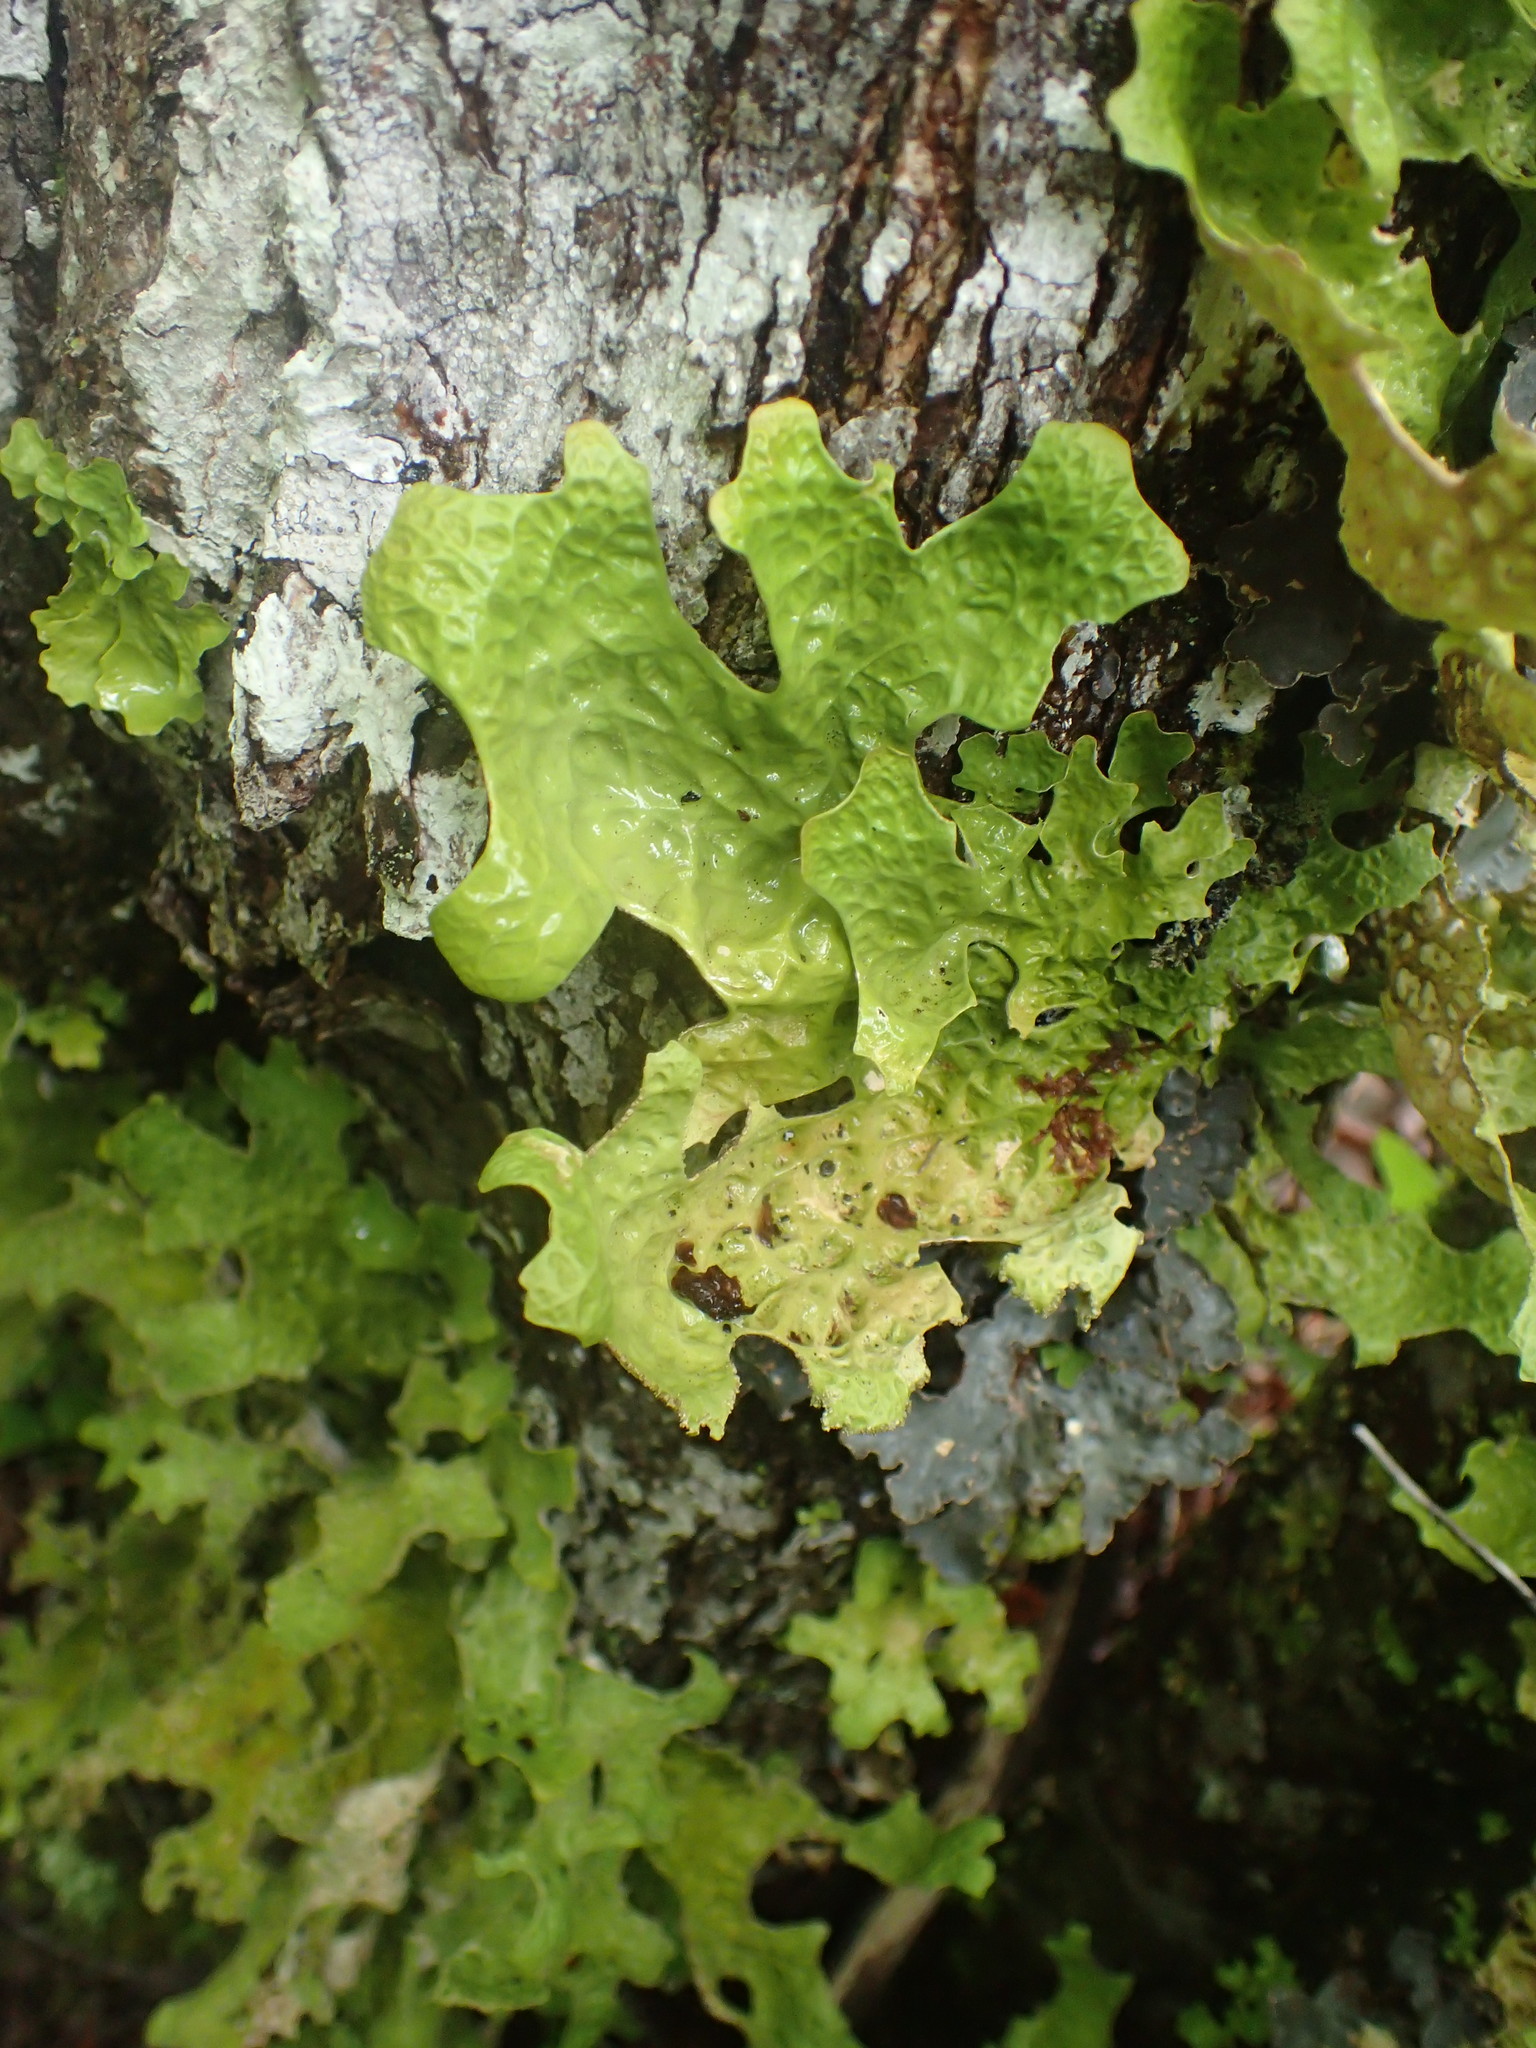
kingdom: Fungi
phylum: Ascomycota
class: Lecanoromycetes
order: Peltigerales
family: Lobariaceae
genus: Lobaria
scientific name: Lobaria pulmonaria
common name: Lungwort
